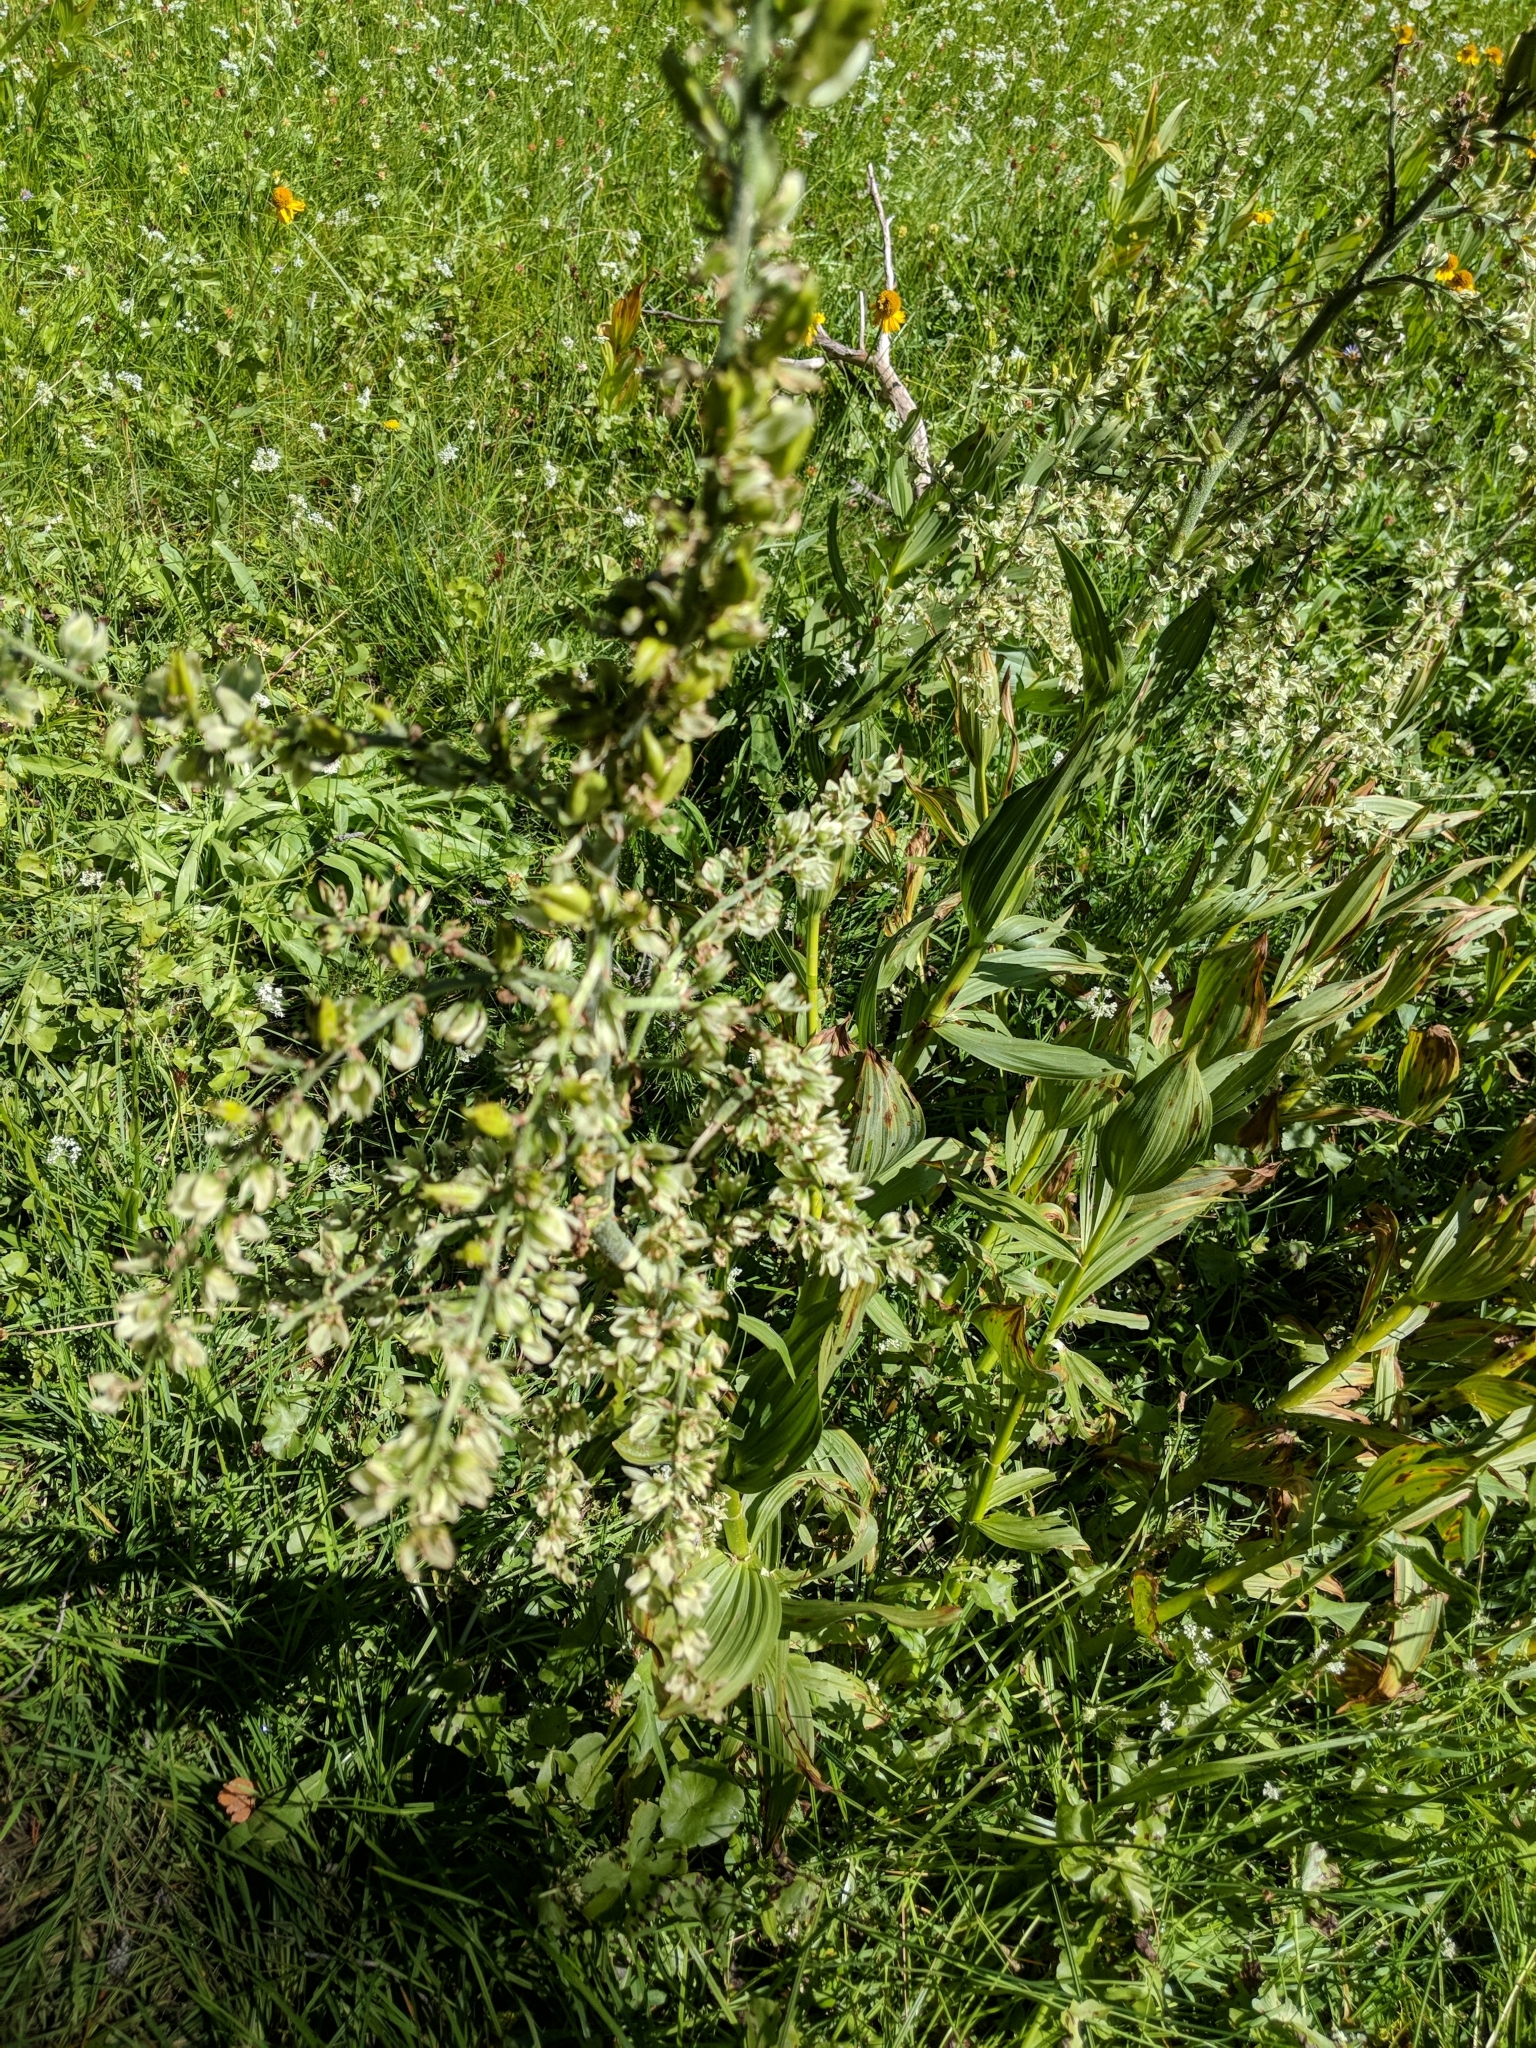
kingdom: Plantae
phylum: Tracheophyta
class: Liliopsida
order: Liliales
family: Melanthiaceae
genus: Veratrum
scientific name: Veratrum californicum
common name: California veratrum
